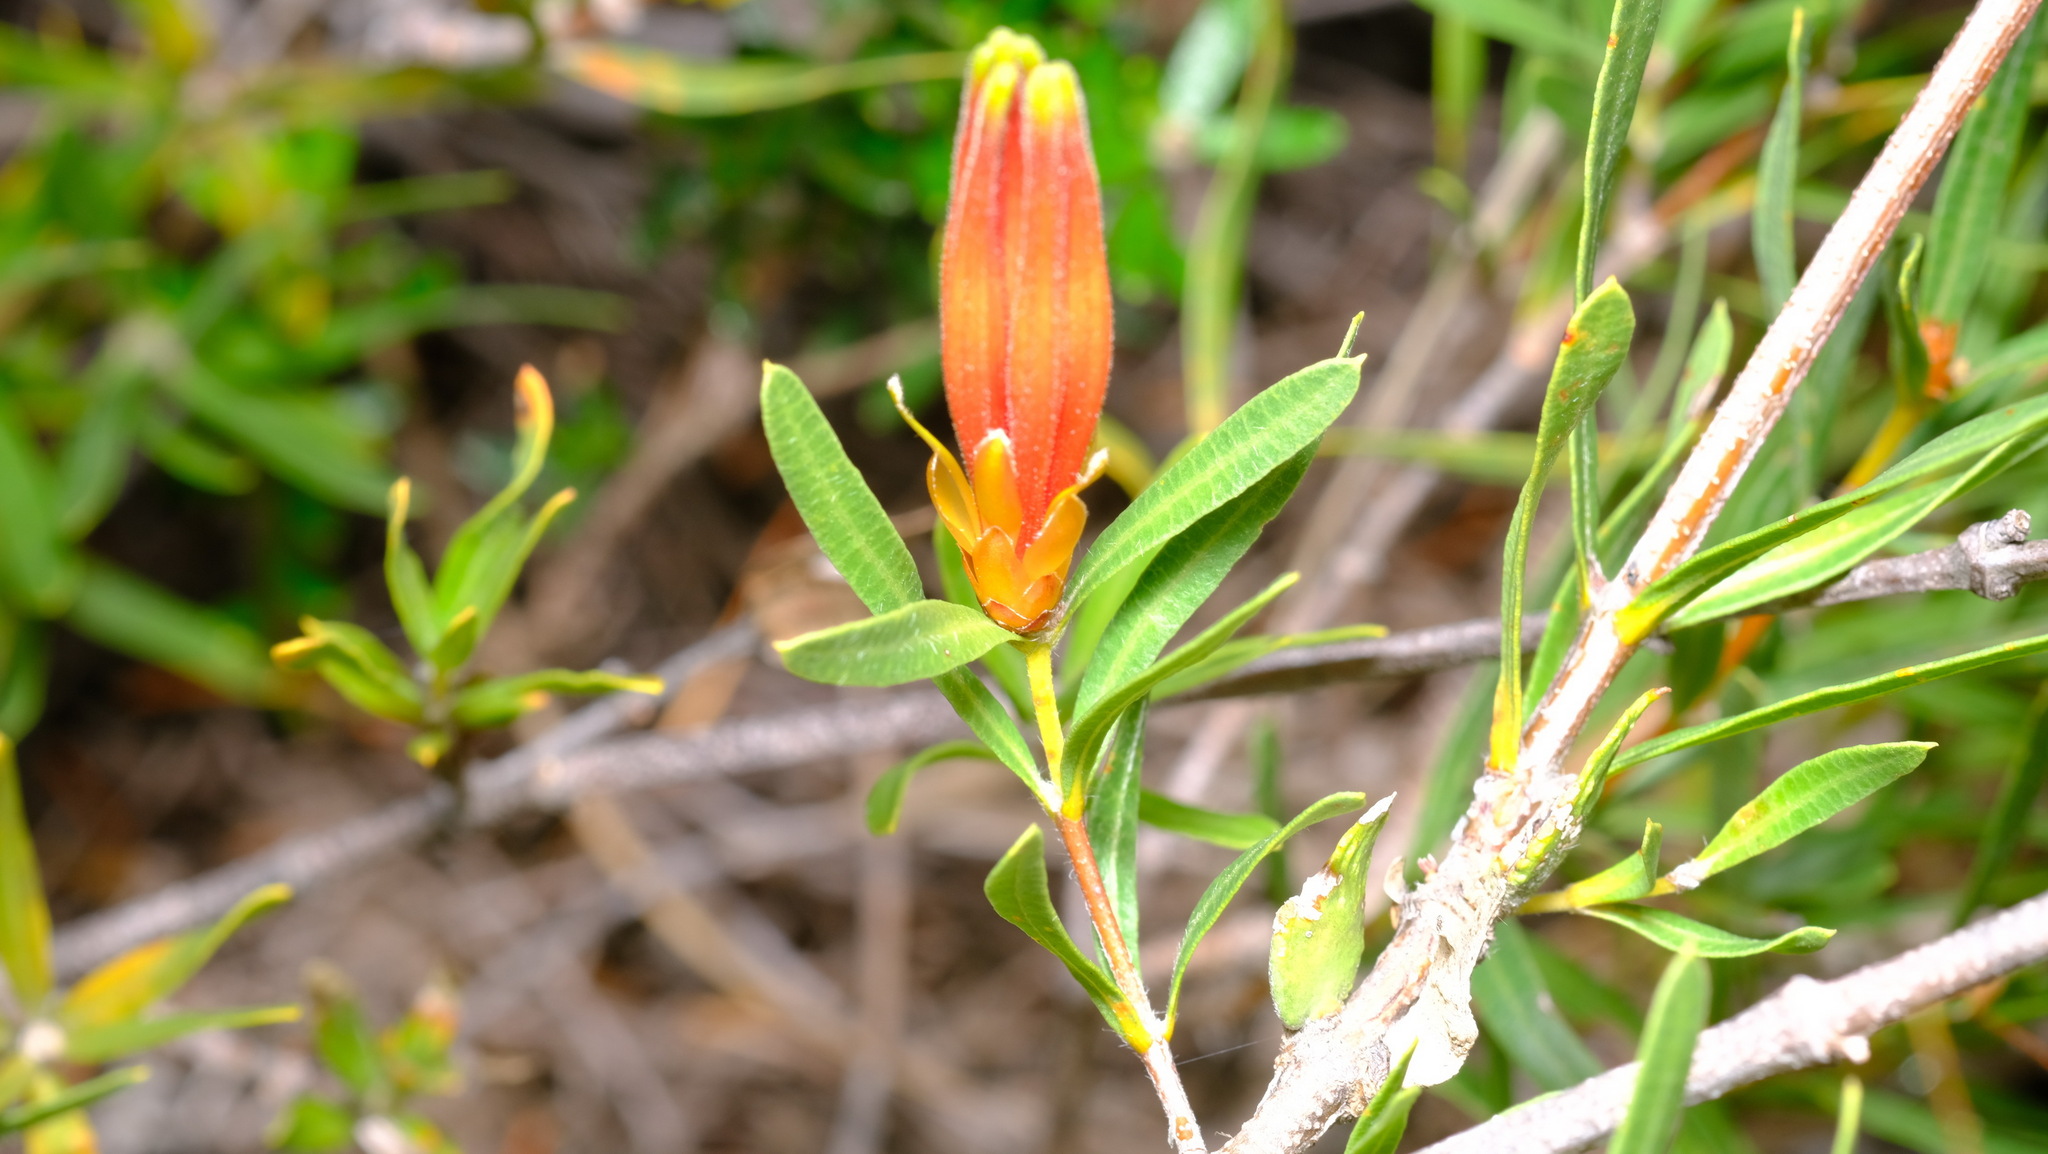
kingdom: Plantae
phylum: Tracheophyta
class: Magnoliopsida
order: Proteales
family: Proteaceae
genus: Lambertia
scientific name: Lambertia multiflora
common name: Many-flowered honeysuckle
